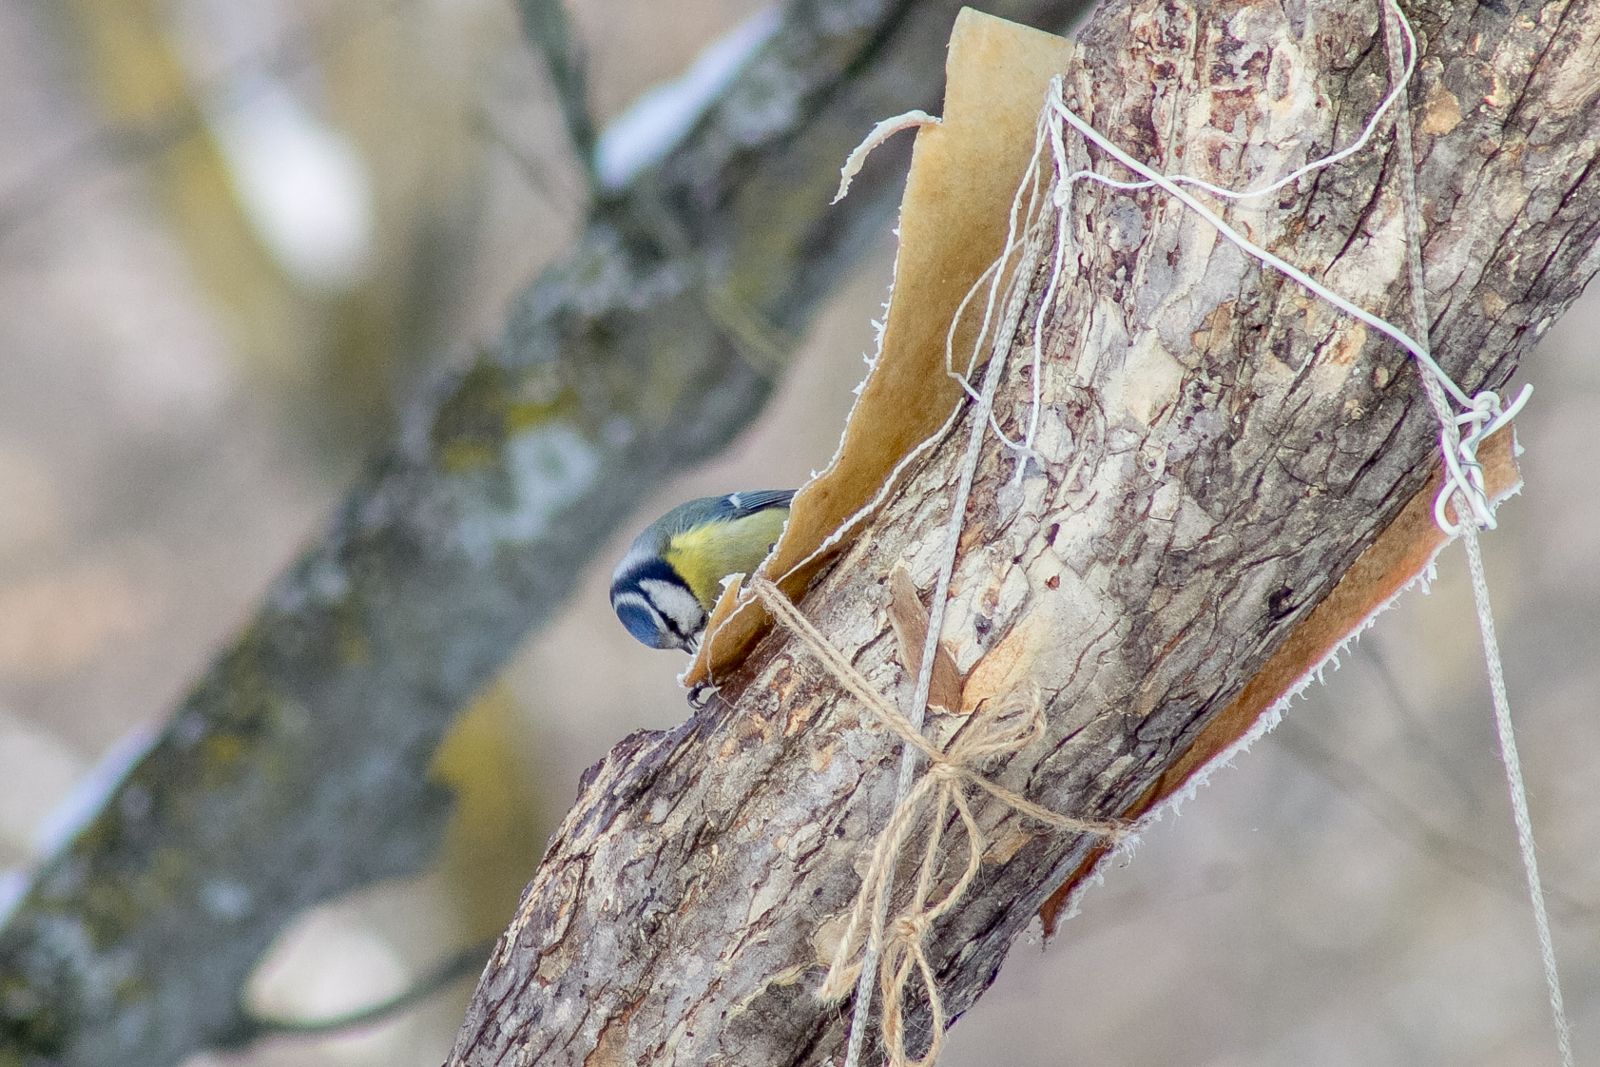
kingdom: Animalia
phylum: Chordata
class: Aves
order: Passeriformes
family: Paridae
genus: Cyanistes
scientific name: Cyanistes caeruleus
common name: Eurasian blue tit
